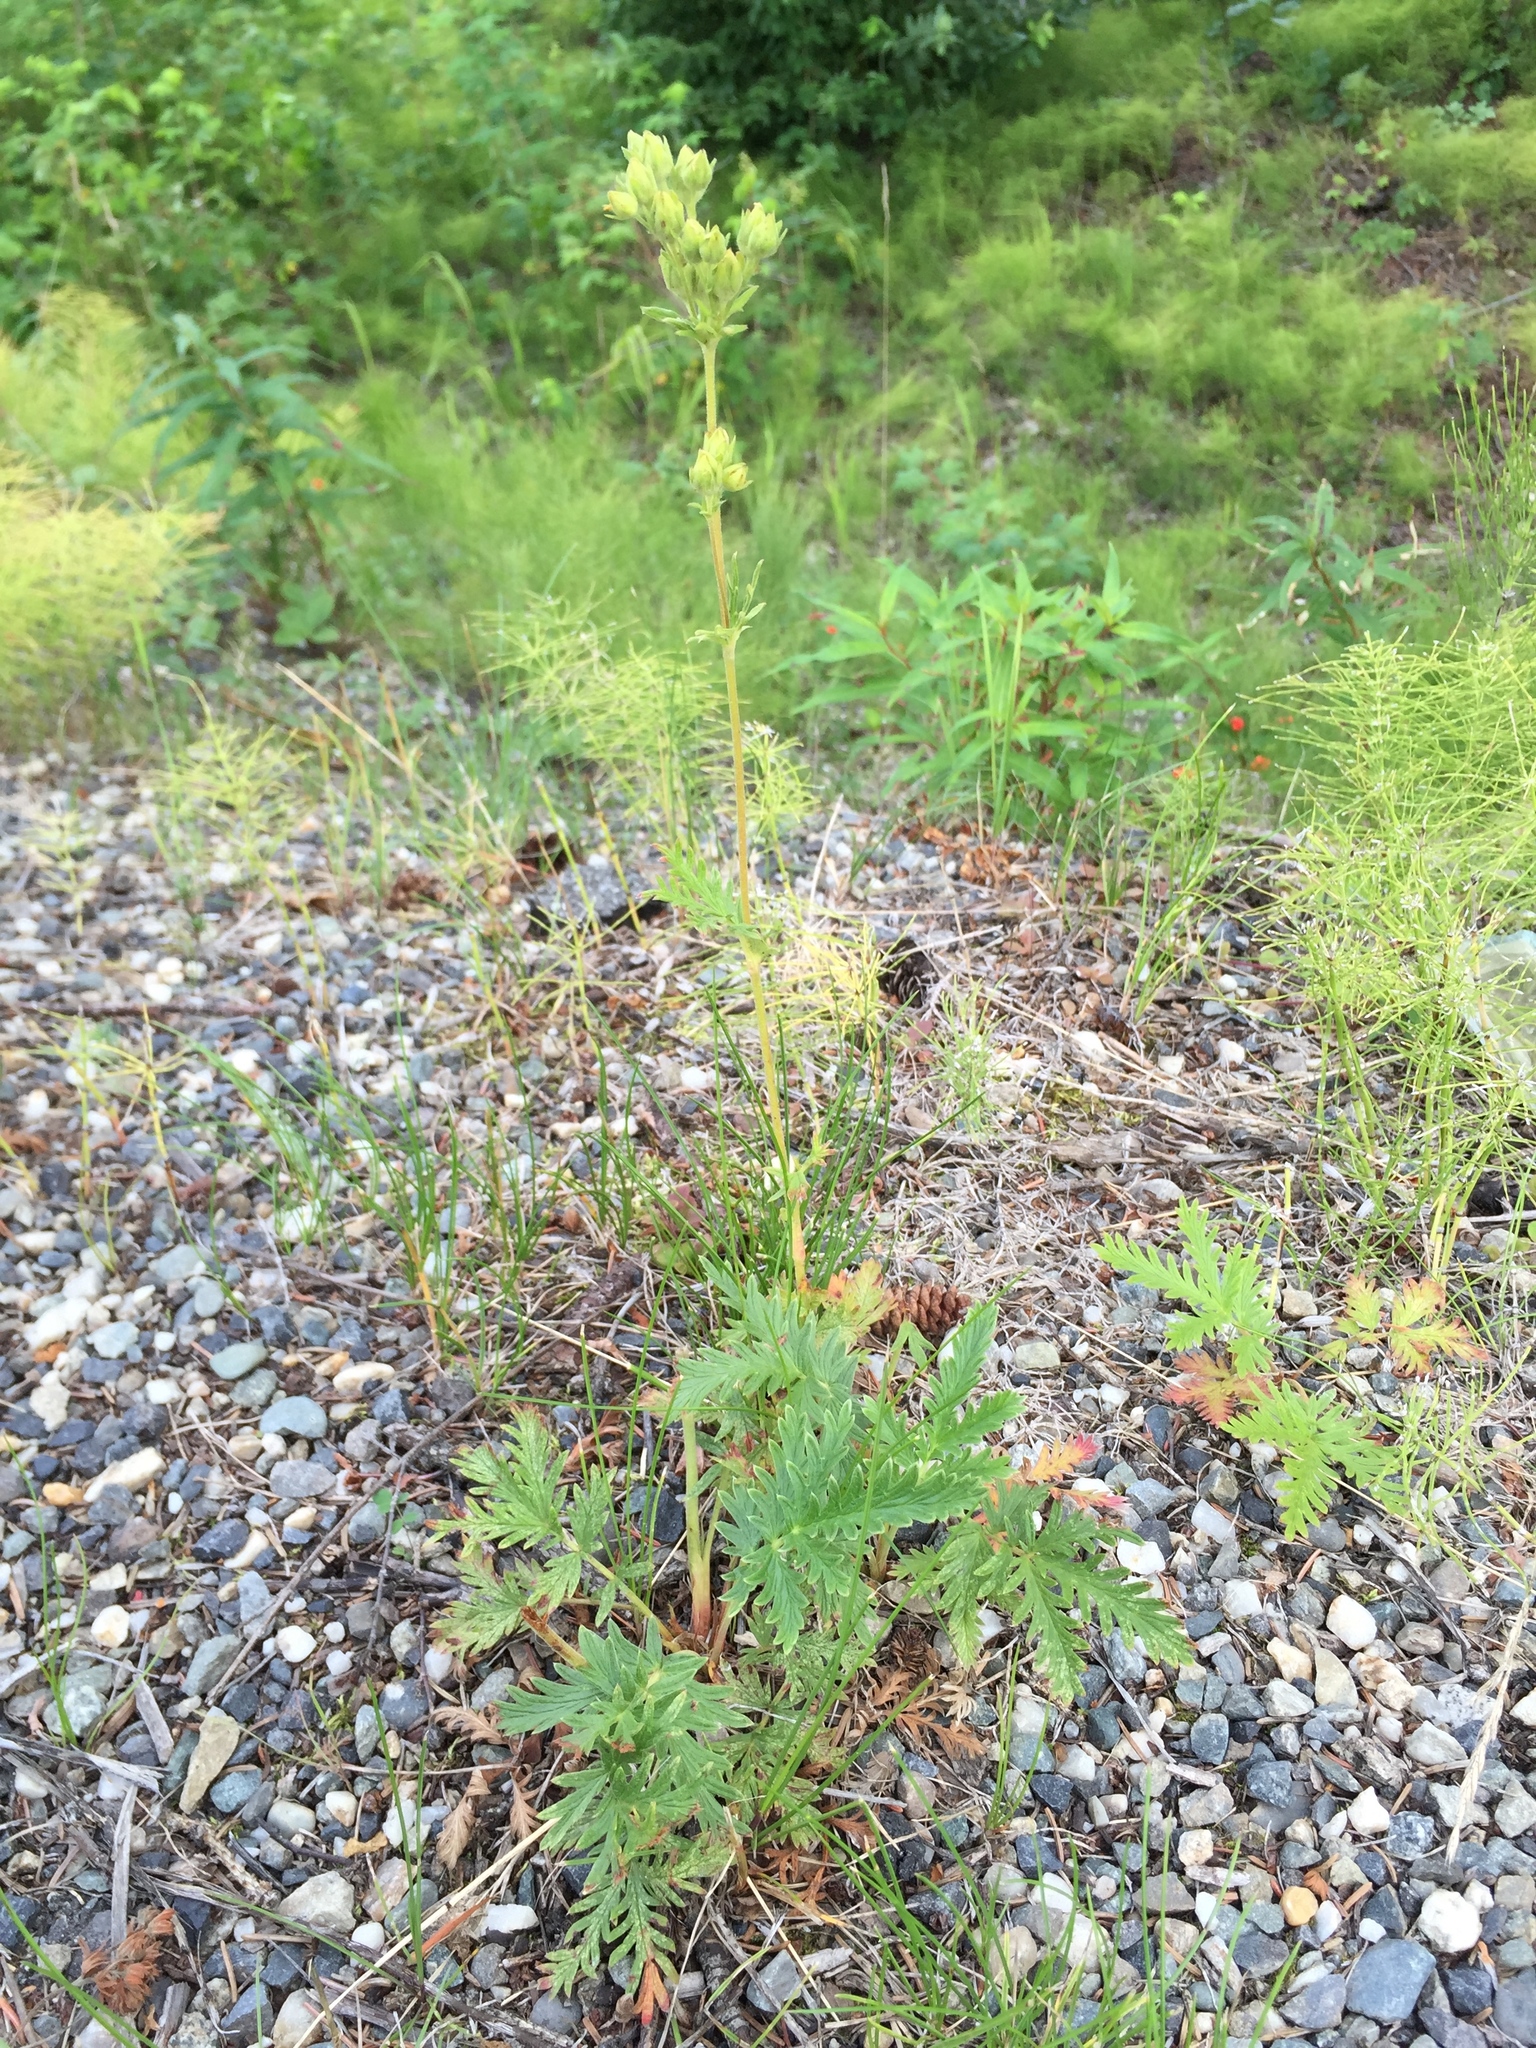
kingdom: Plantae
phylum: Tracheophyta
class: Magnoliopsida
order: Rosales
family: Rosaceae
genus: Potentilla
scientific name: Potentilla pensylvanica
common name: Pennsylvania cinquefoil
